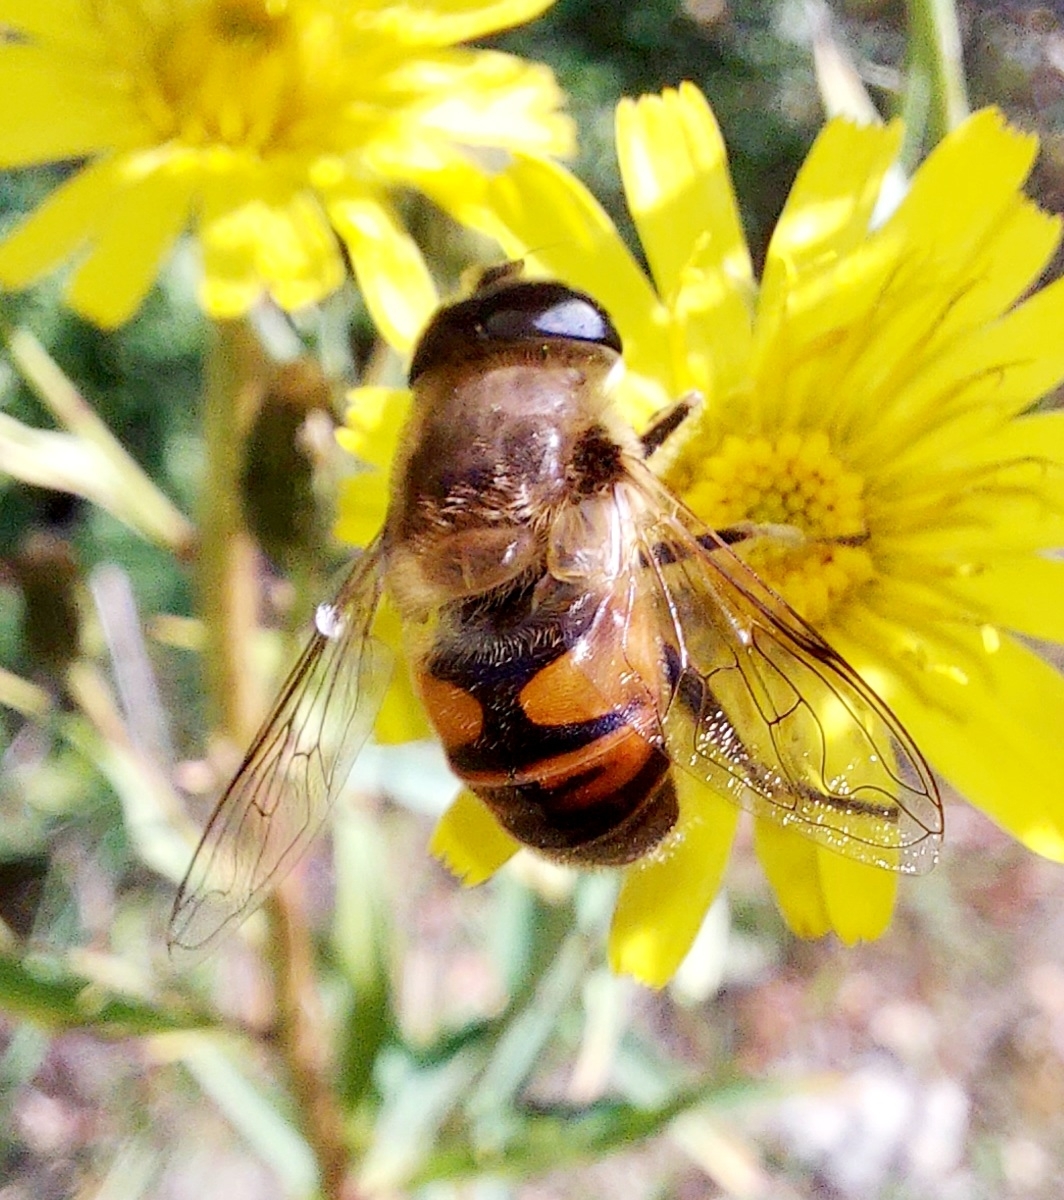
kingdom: Animalia
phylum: Arthropoda
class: Insecta
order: Diptera
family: Syrphidae
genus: Eristalis
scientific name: Eristalis tenax
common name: Drone fly
